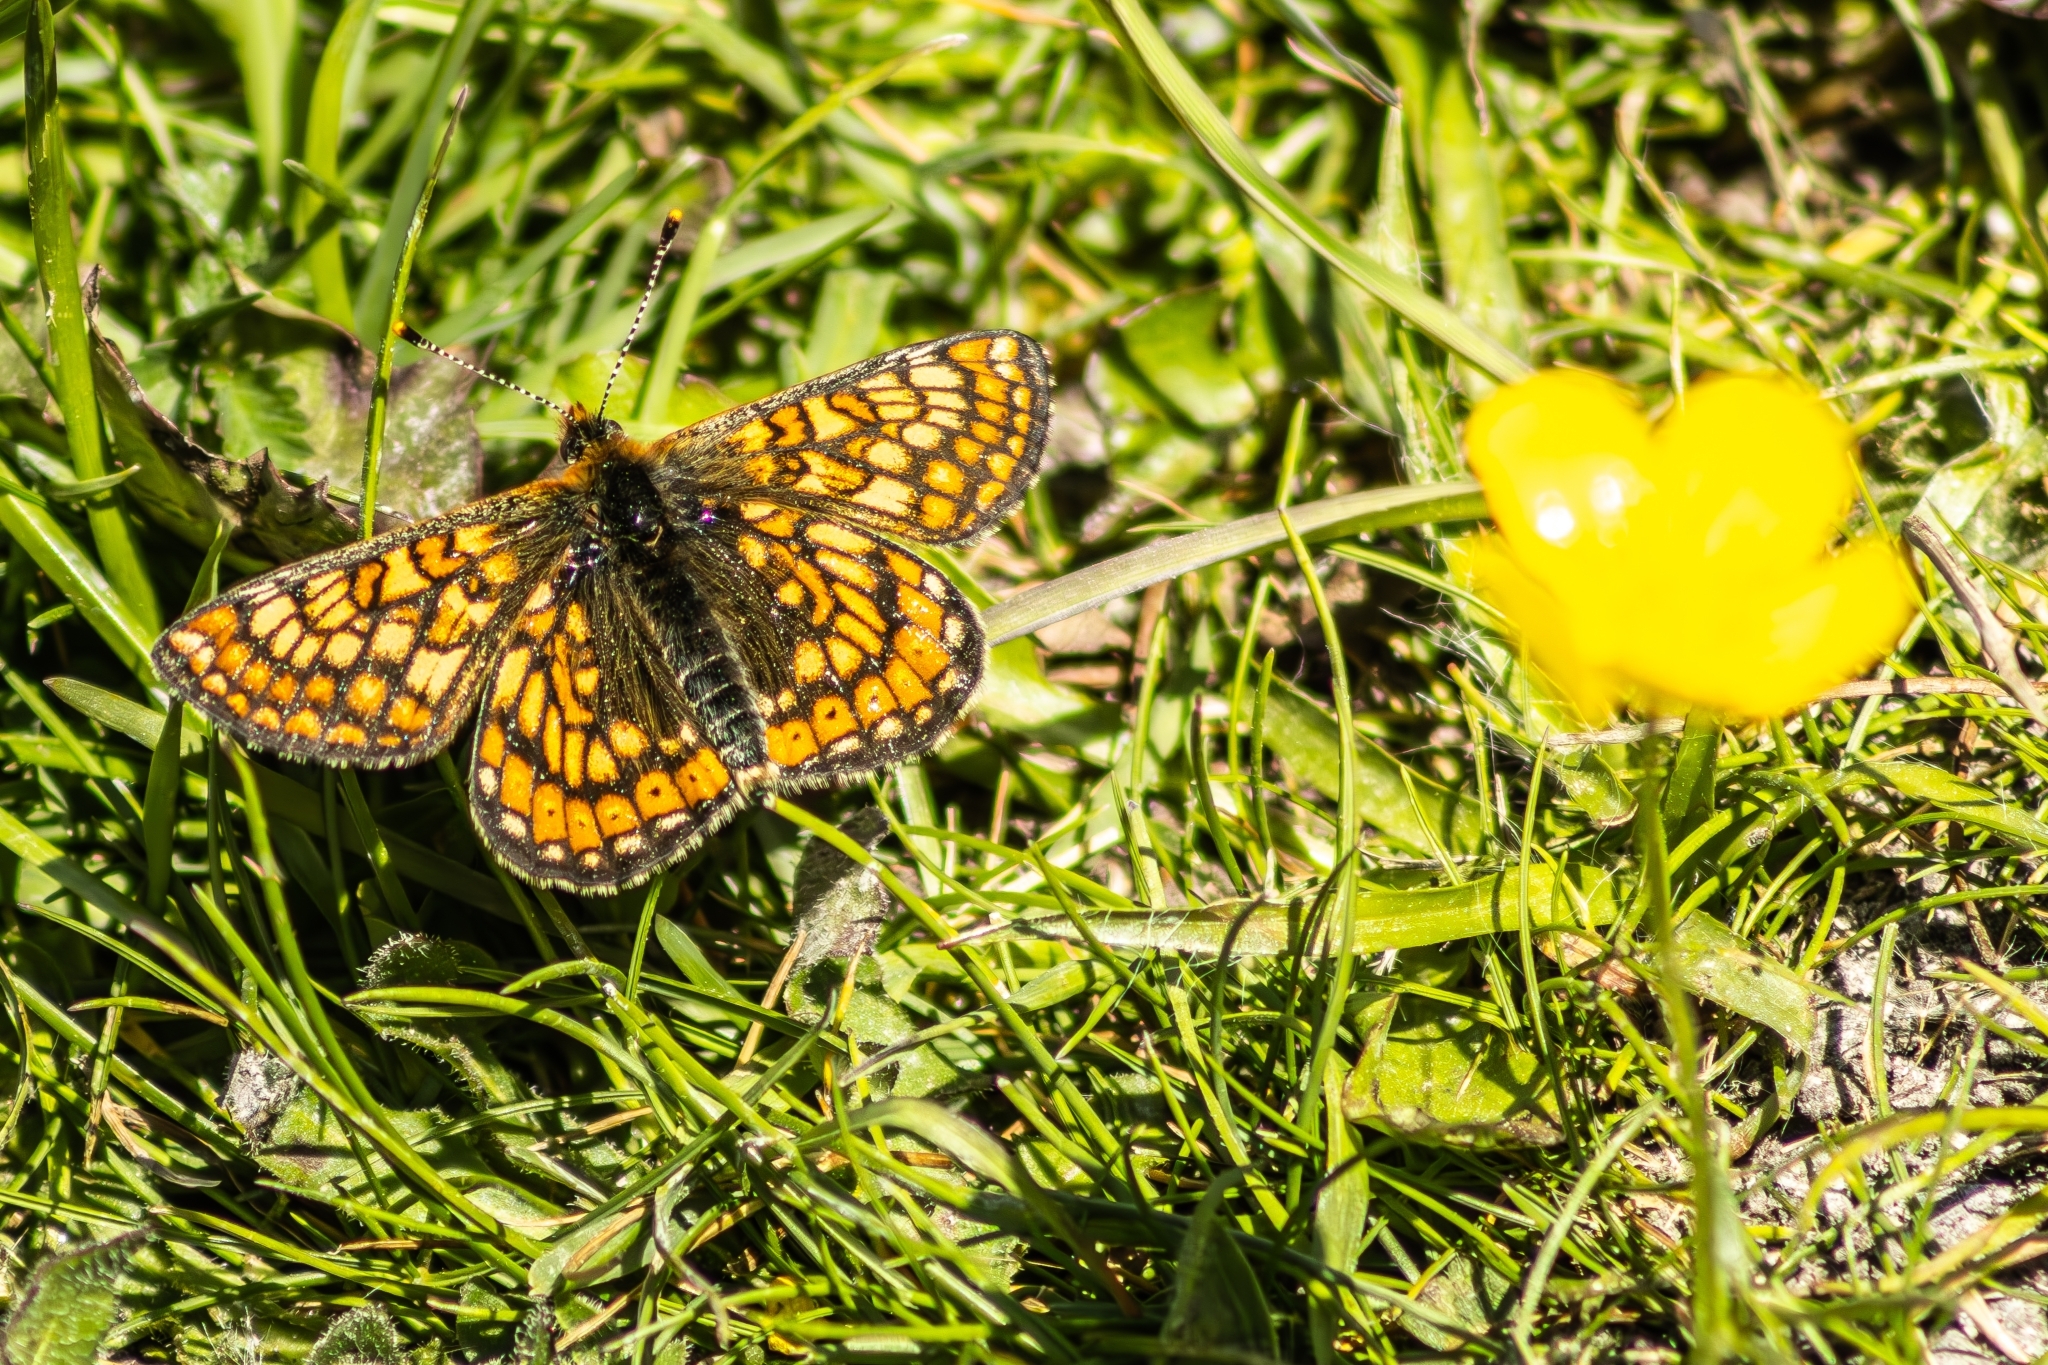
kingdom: Animalia
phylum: Arthropoda
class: Insecta
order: Lepidoptera
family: Nymphalidae
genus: Euphydryas
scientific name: Euphydryas aurinia
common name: Marsh fritillary
